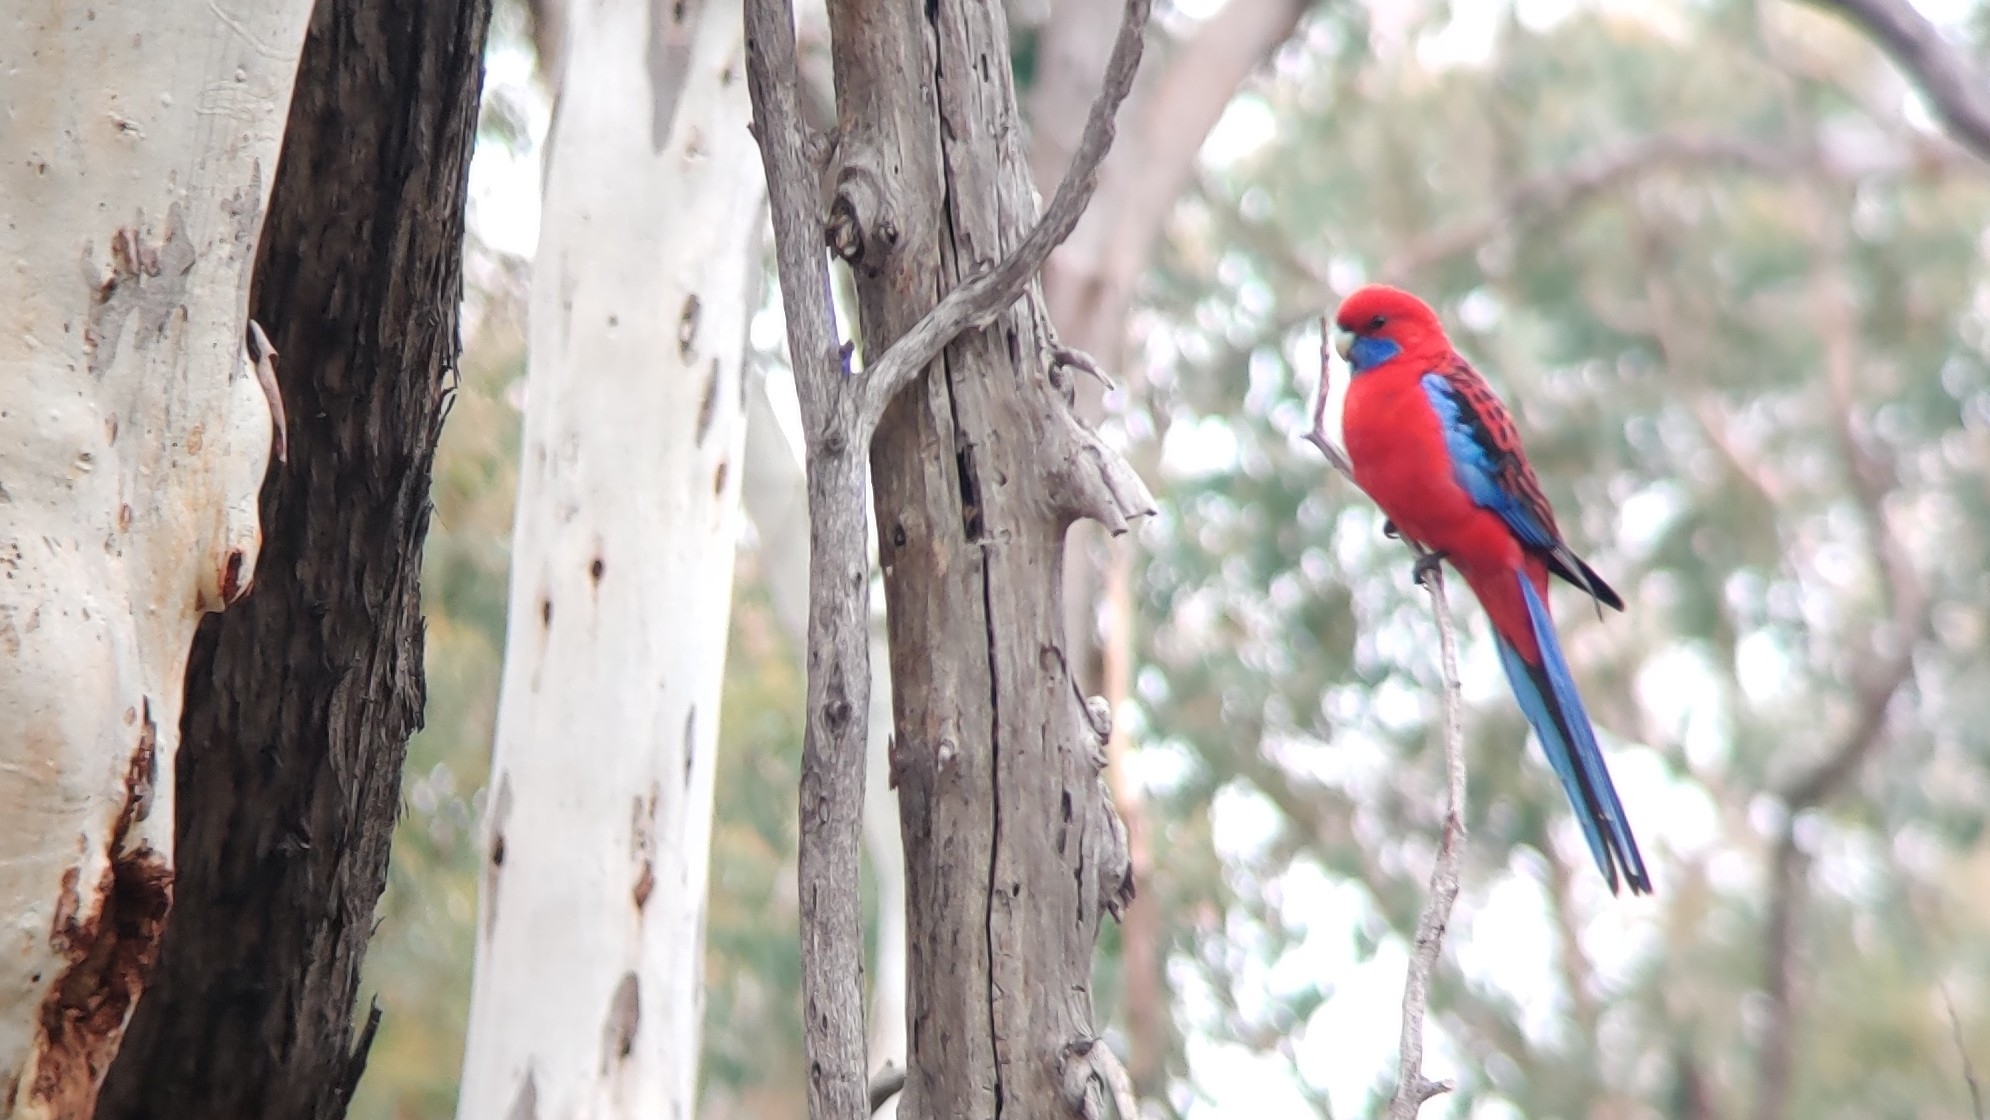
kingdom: Animalia
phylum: Chordata
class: Aves
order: Psittaciformes
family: Psittacidae
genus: Platycercus
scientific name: Platycercus elegans
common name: Crimson rosella
